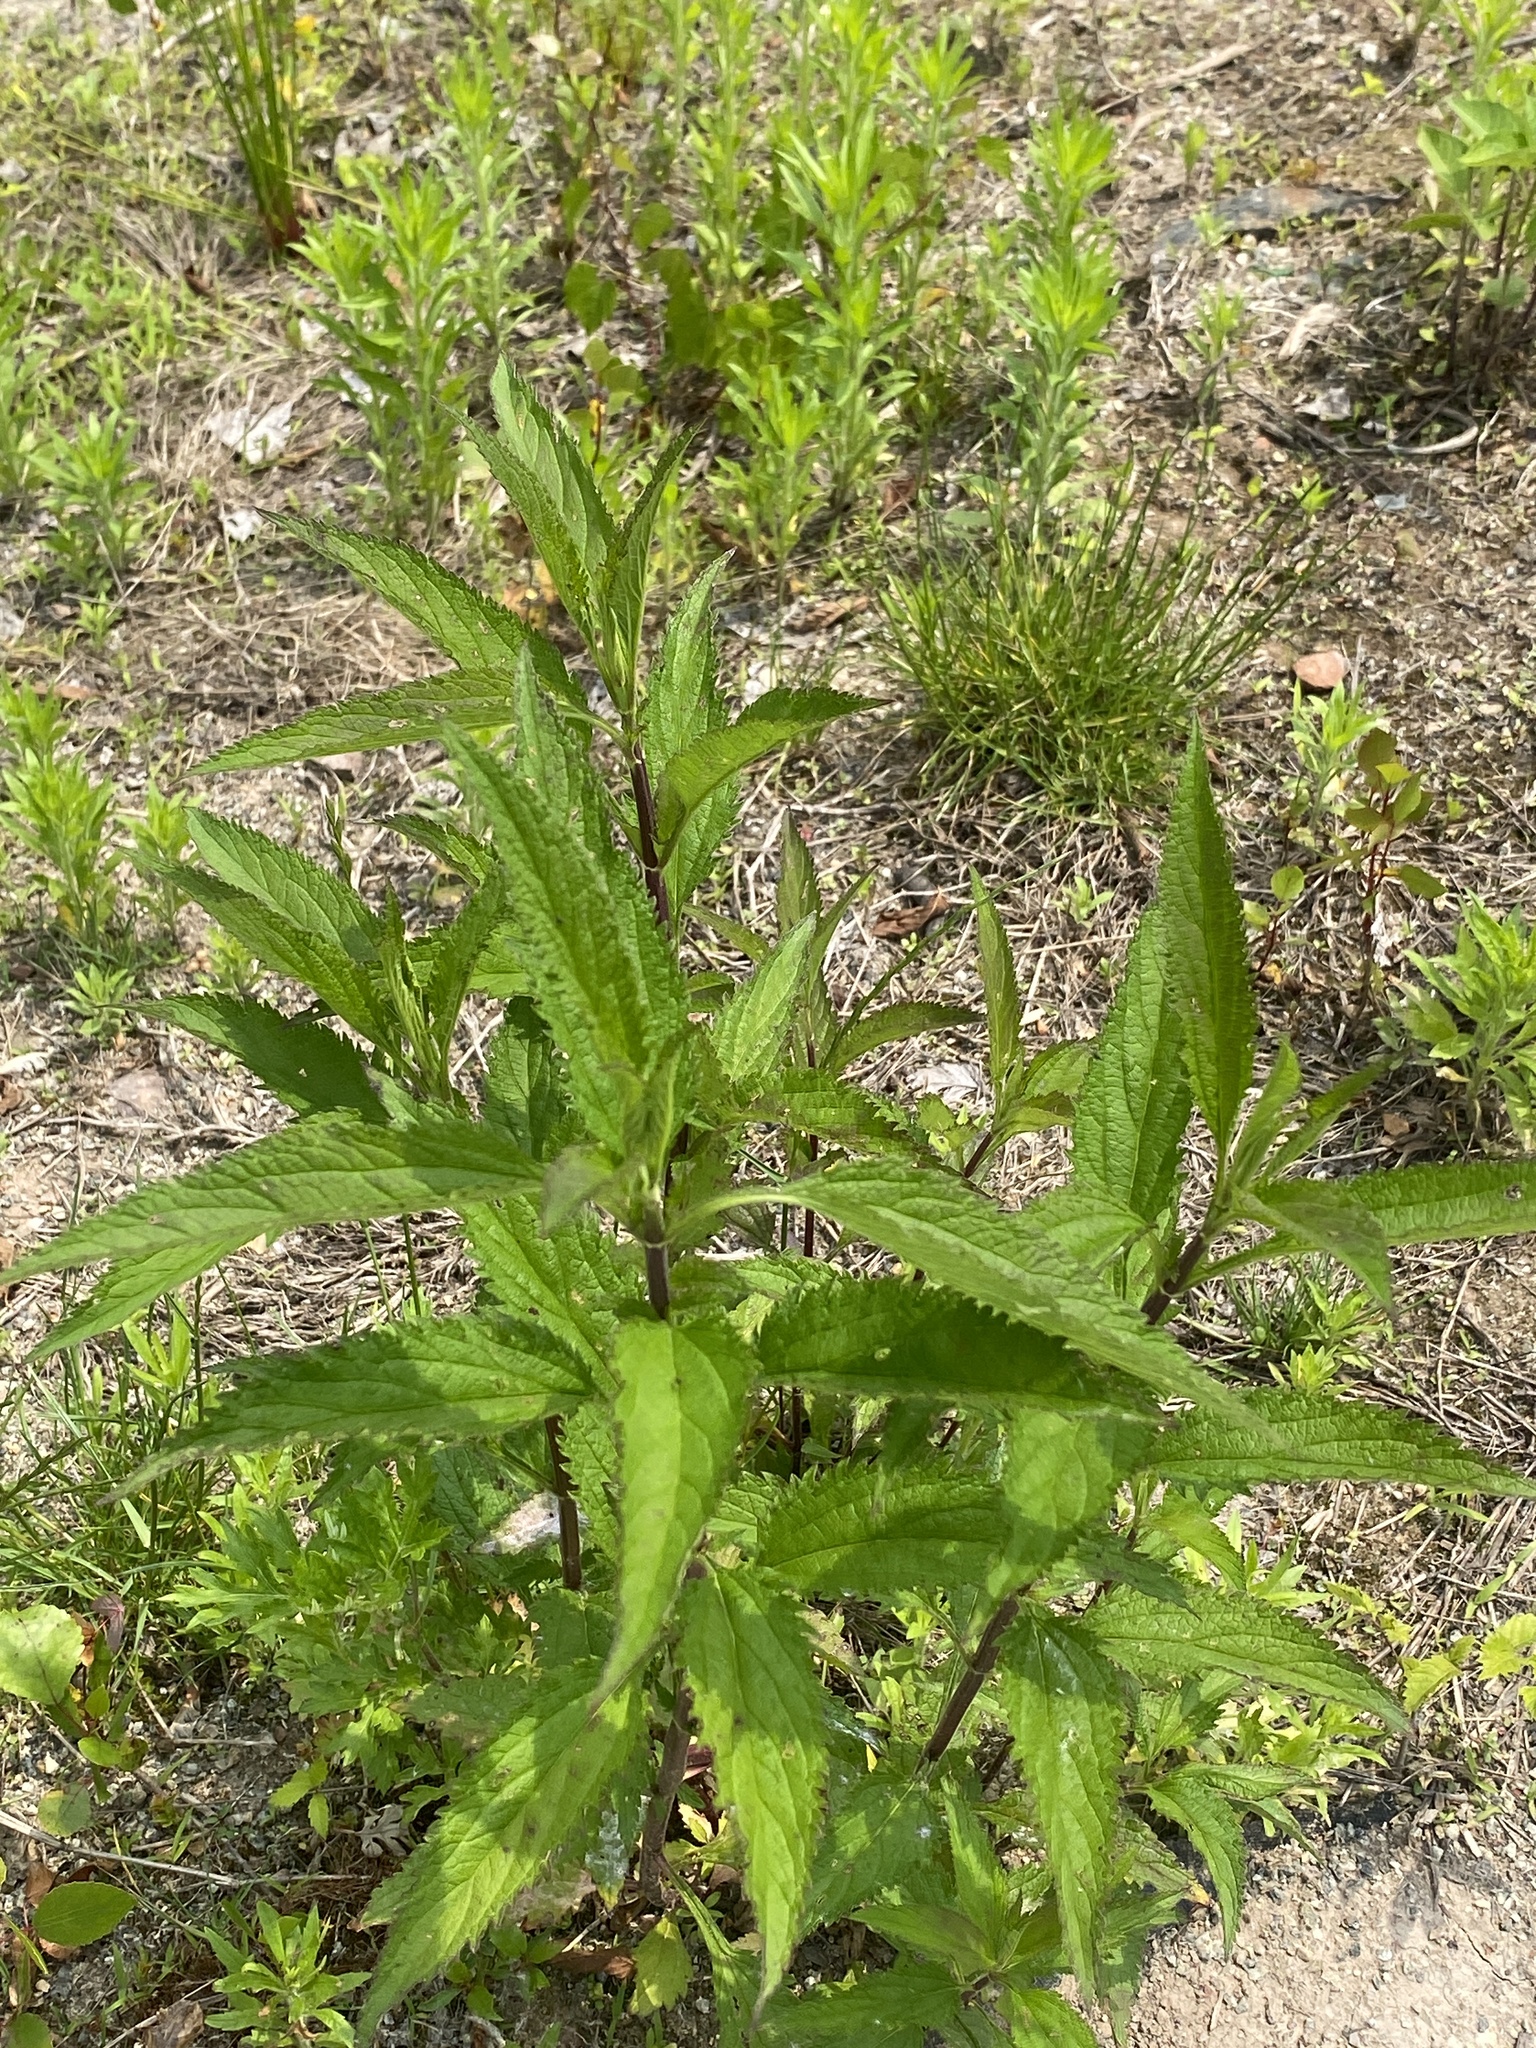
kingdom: Plantae
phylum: Tracheophyta
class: Magnoliopsida
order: Asterales
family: Asteraceae
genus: Eupatorium
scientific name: Eupatorium serotinum
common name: Late boneset
